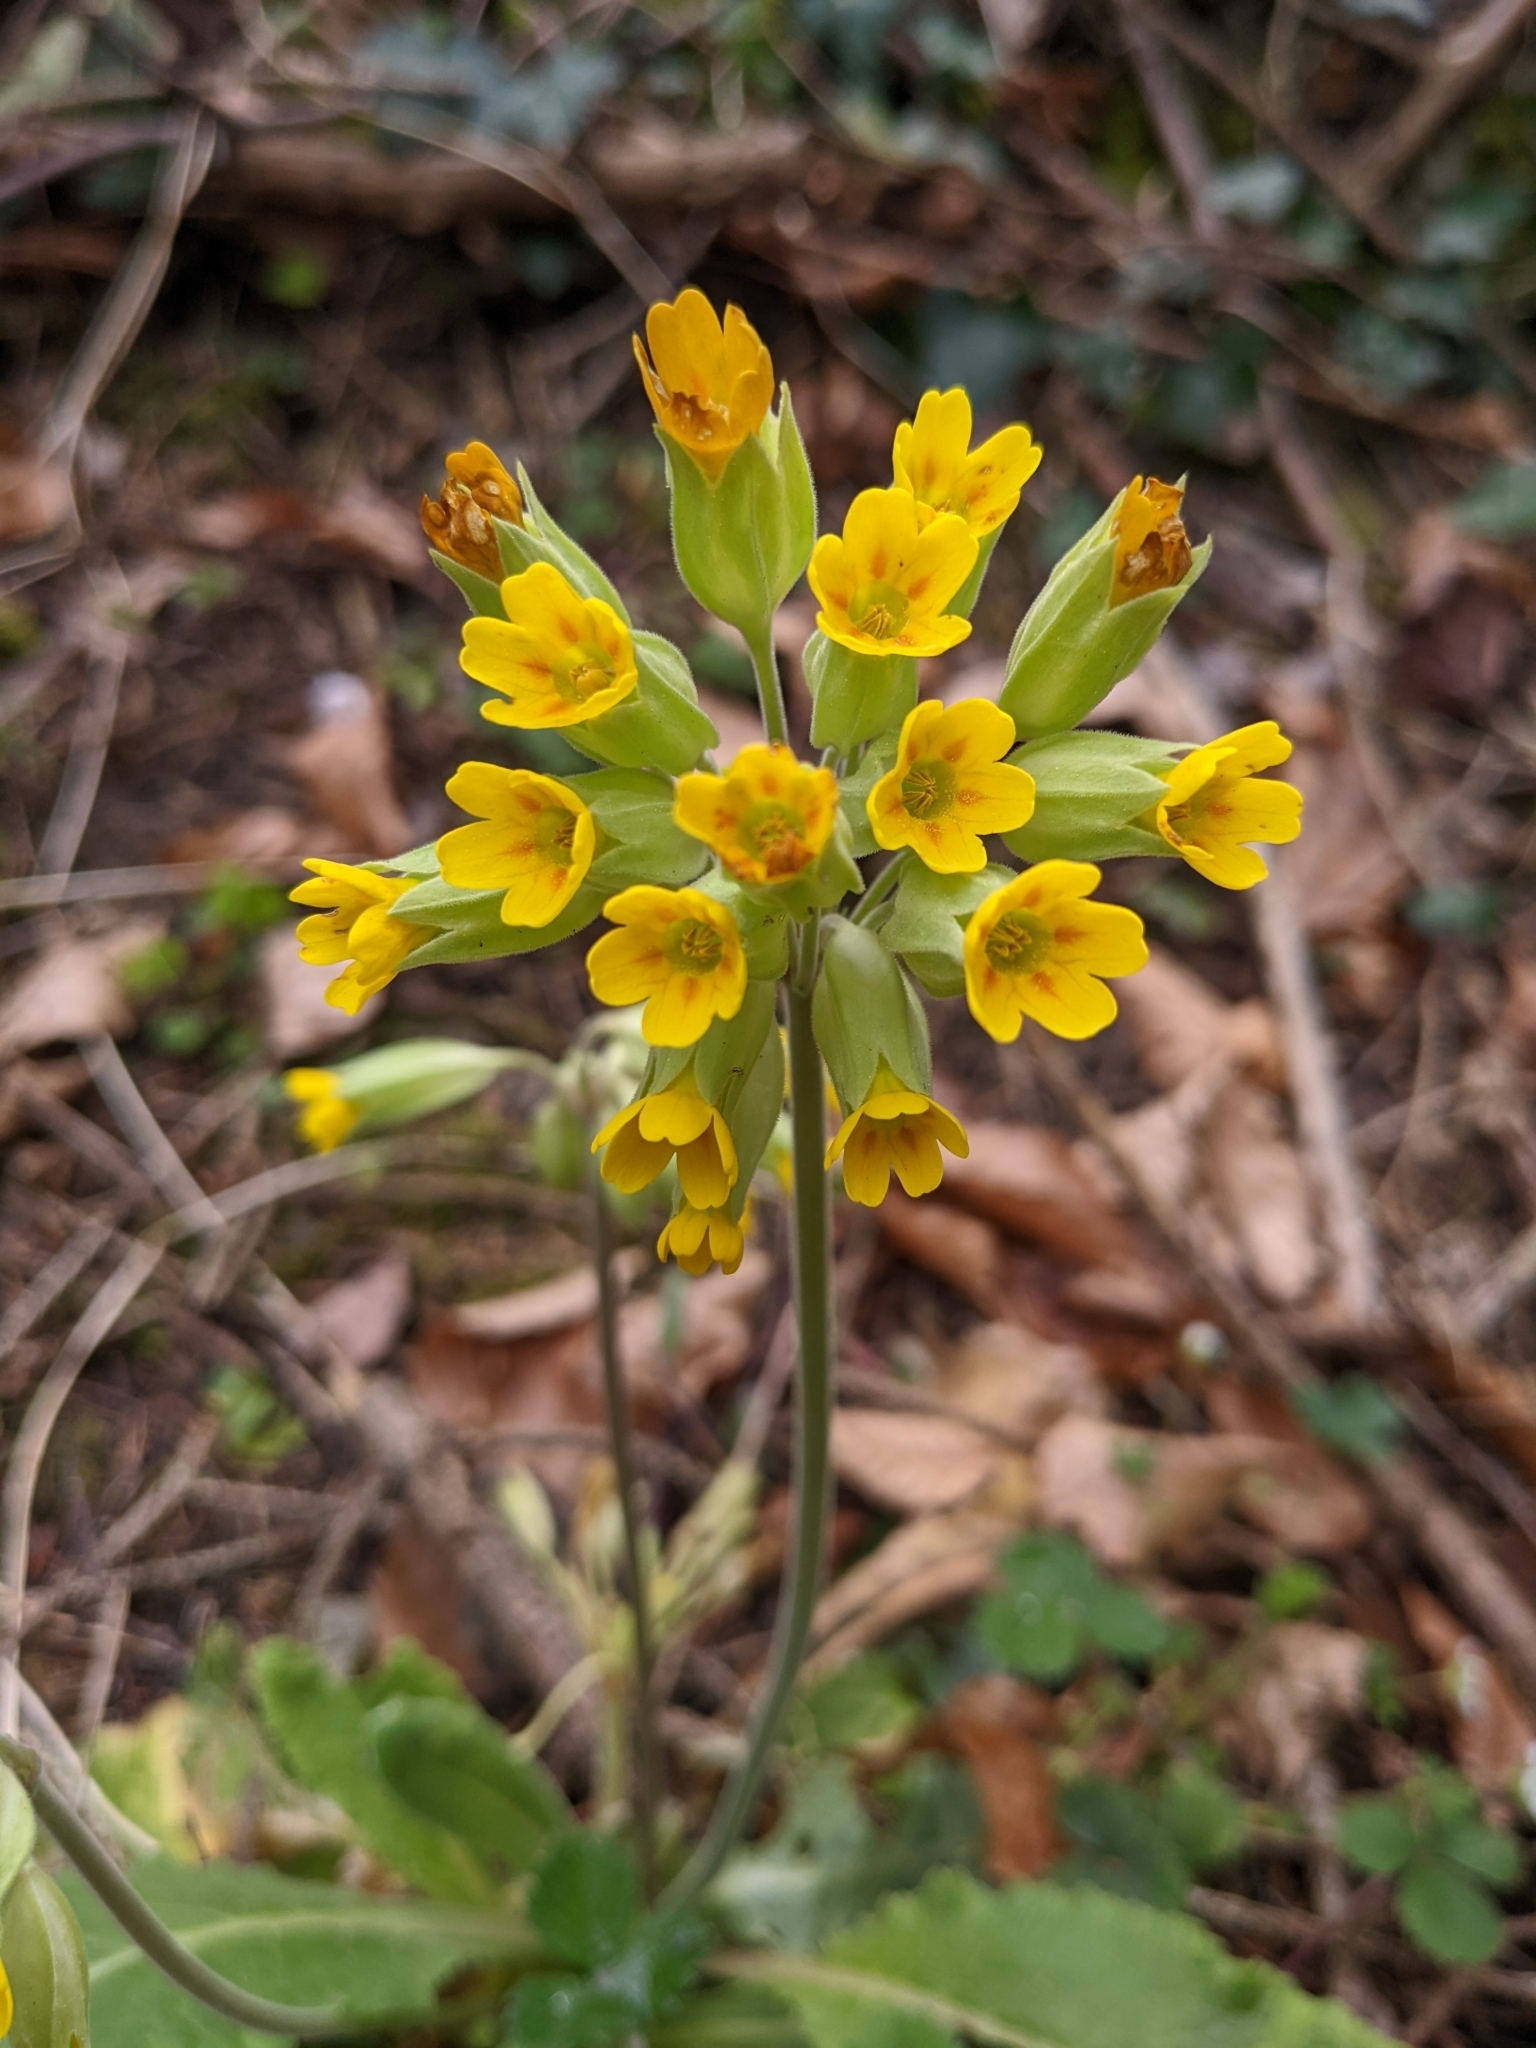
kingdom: Plantae
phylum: Tracheophyta
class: Magnoliopsida
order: Ericales
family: Primulaceae
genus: Primula
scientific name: Primula veris
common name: Cowslip
